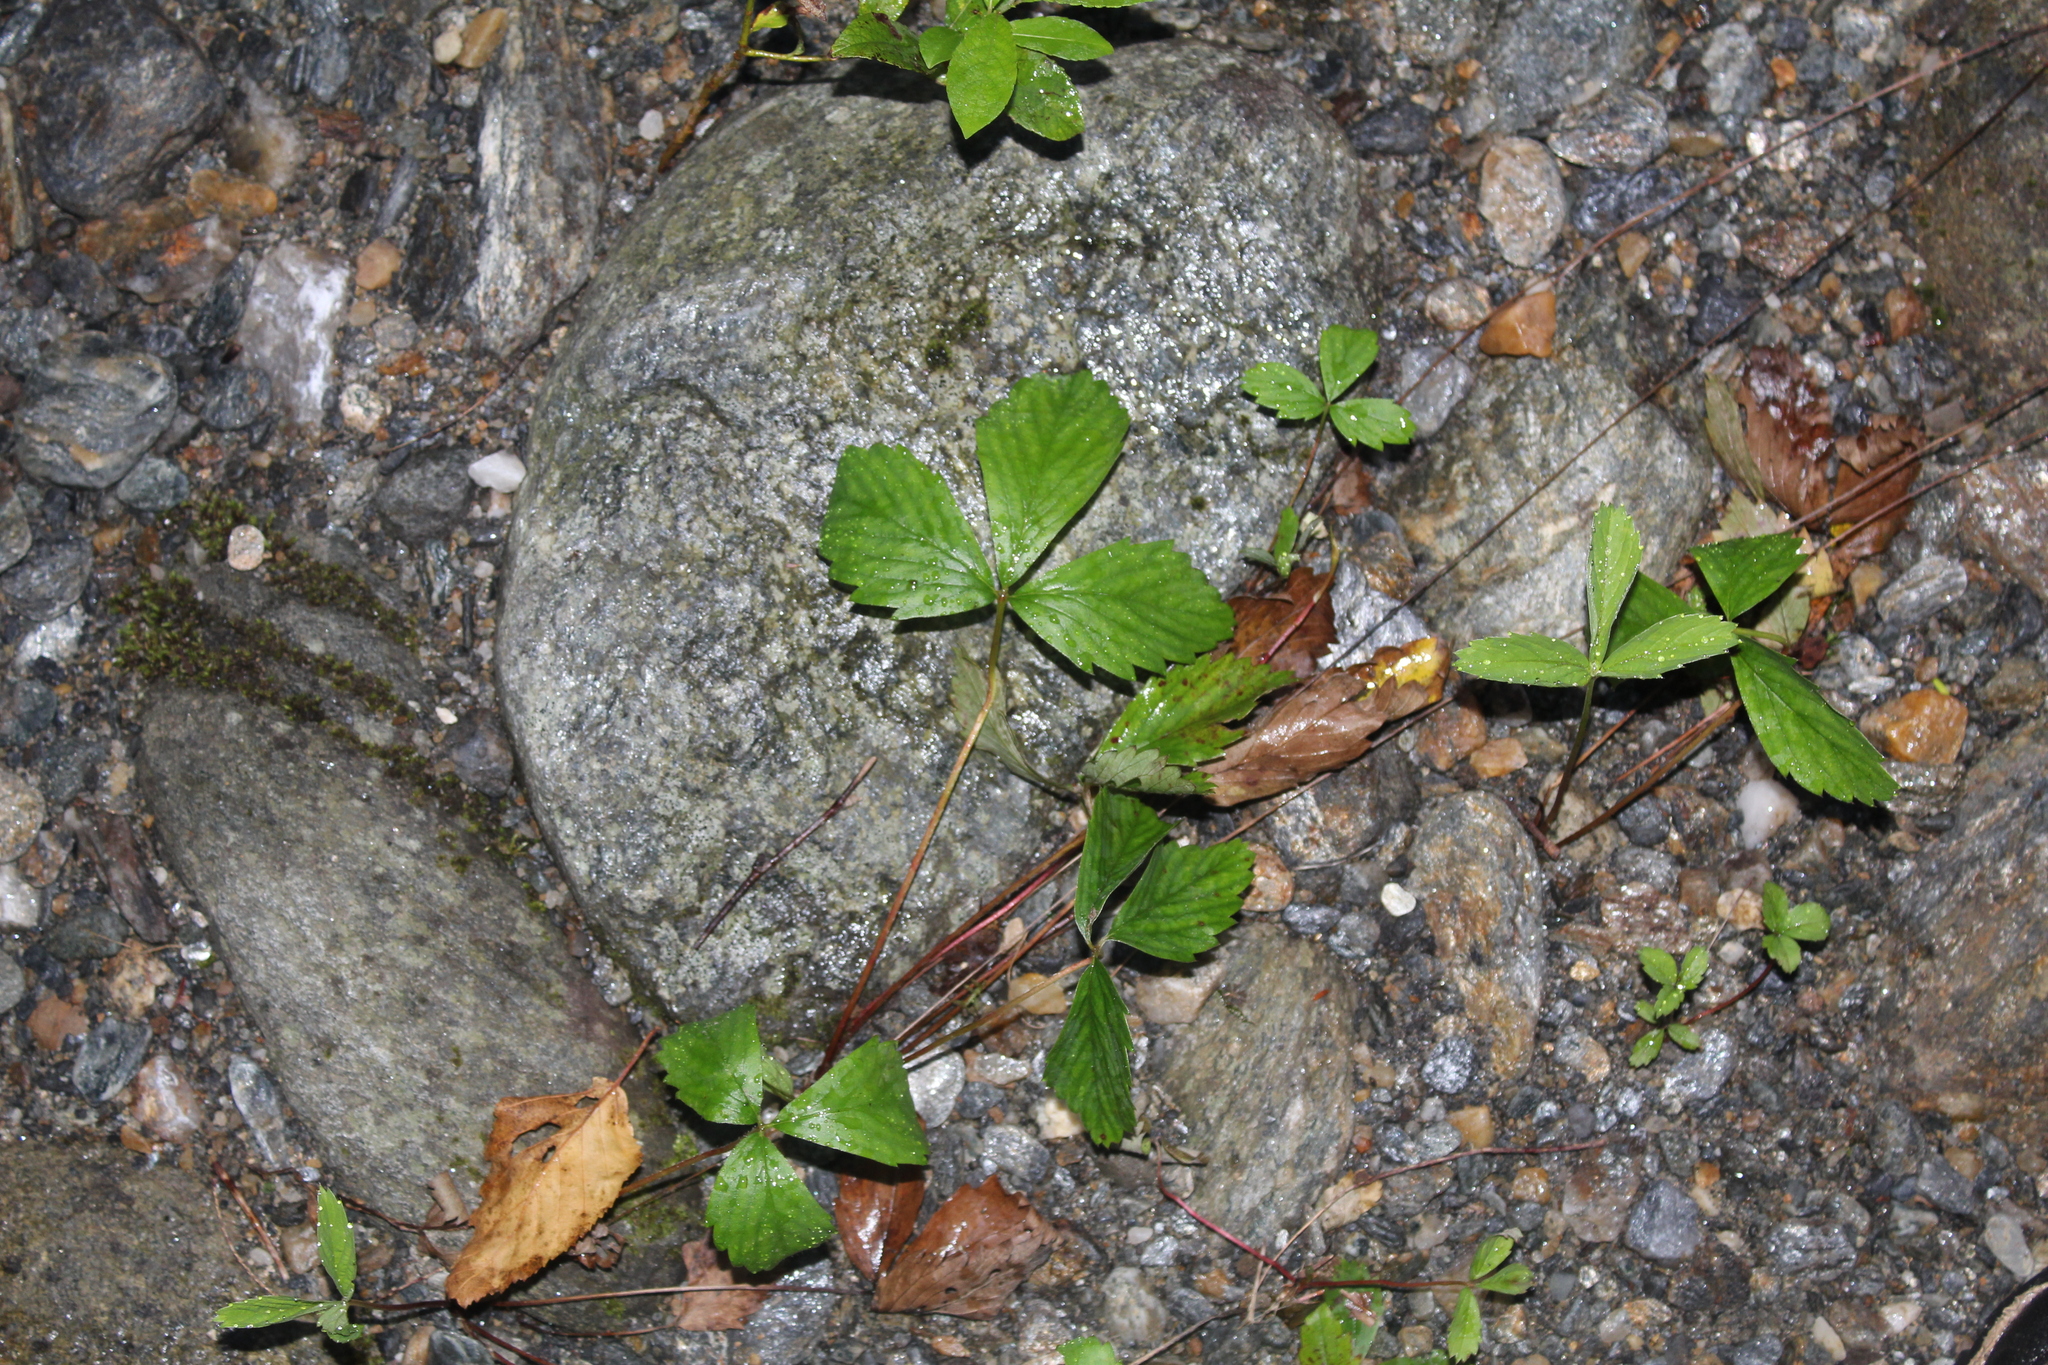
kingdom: Plantae
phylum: Tracheophyta
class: Magnoliopsida
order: Rosales
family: Rosaceae
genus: Fragaria
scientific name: Fragaria virginiana
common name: Thickleaved wild strawberry
